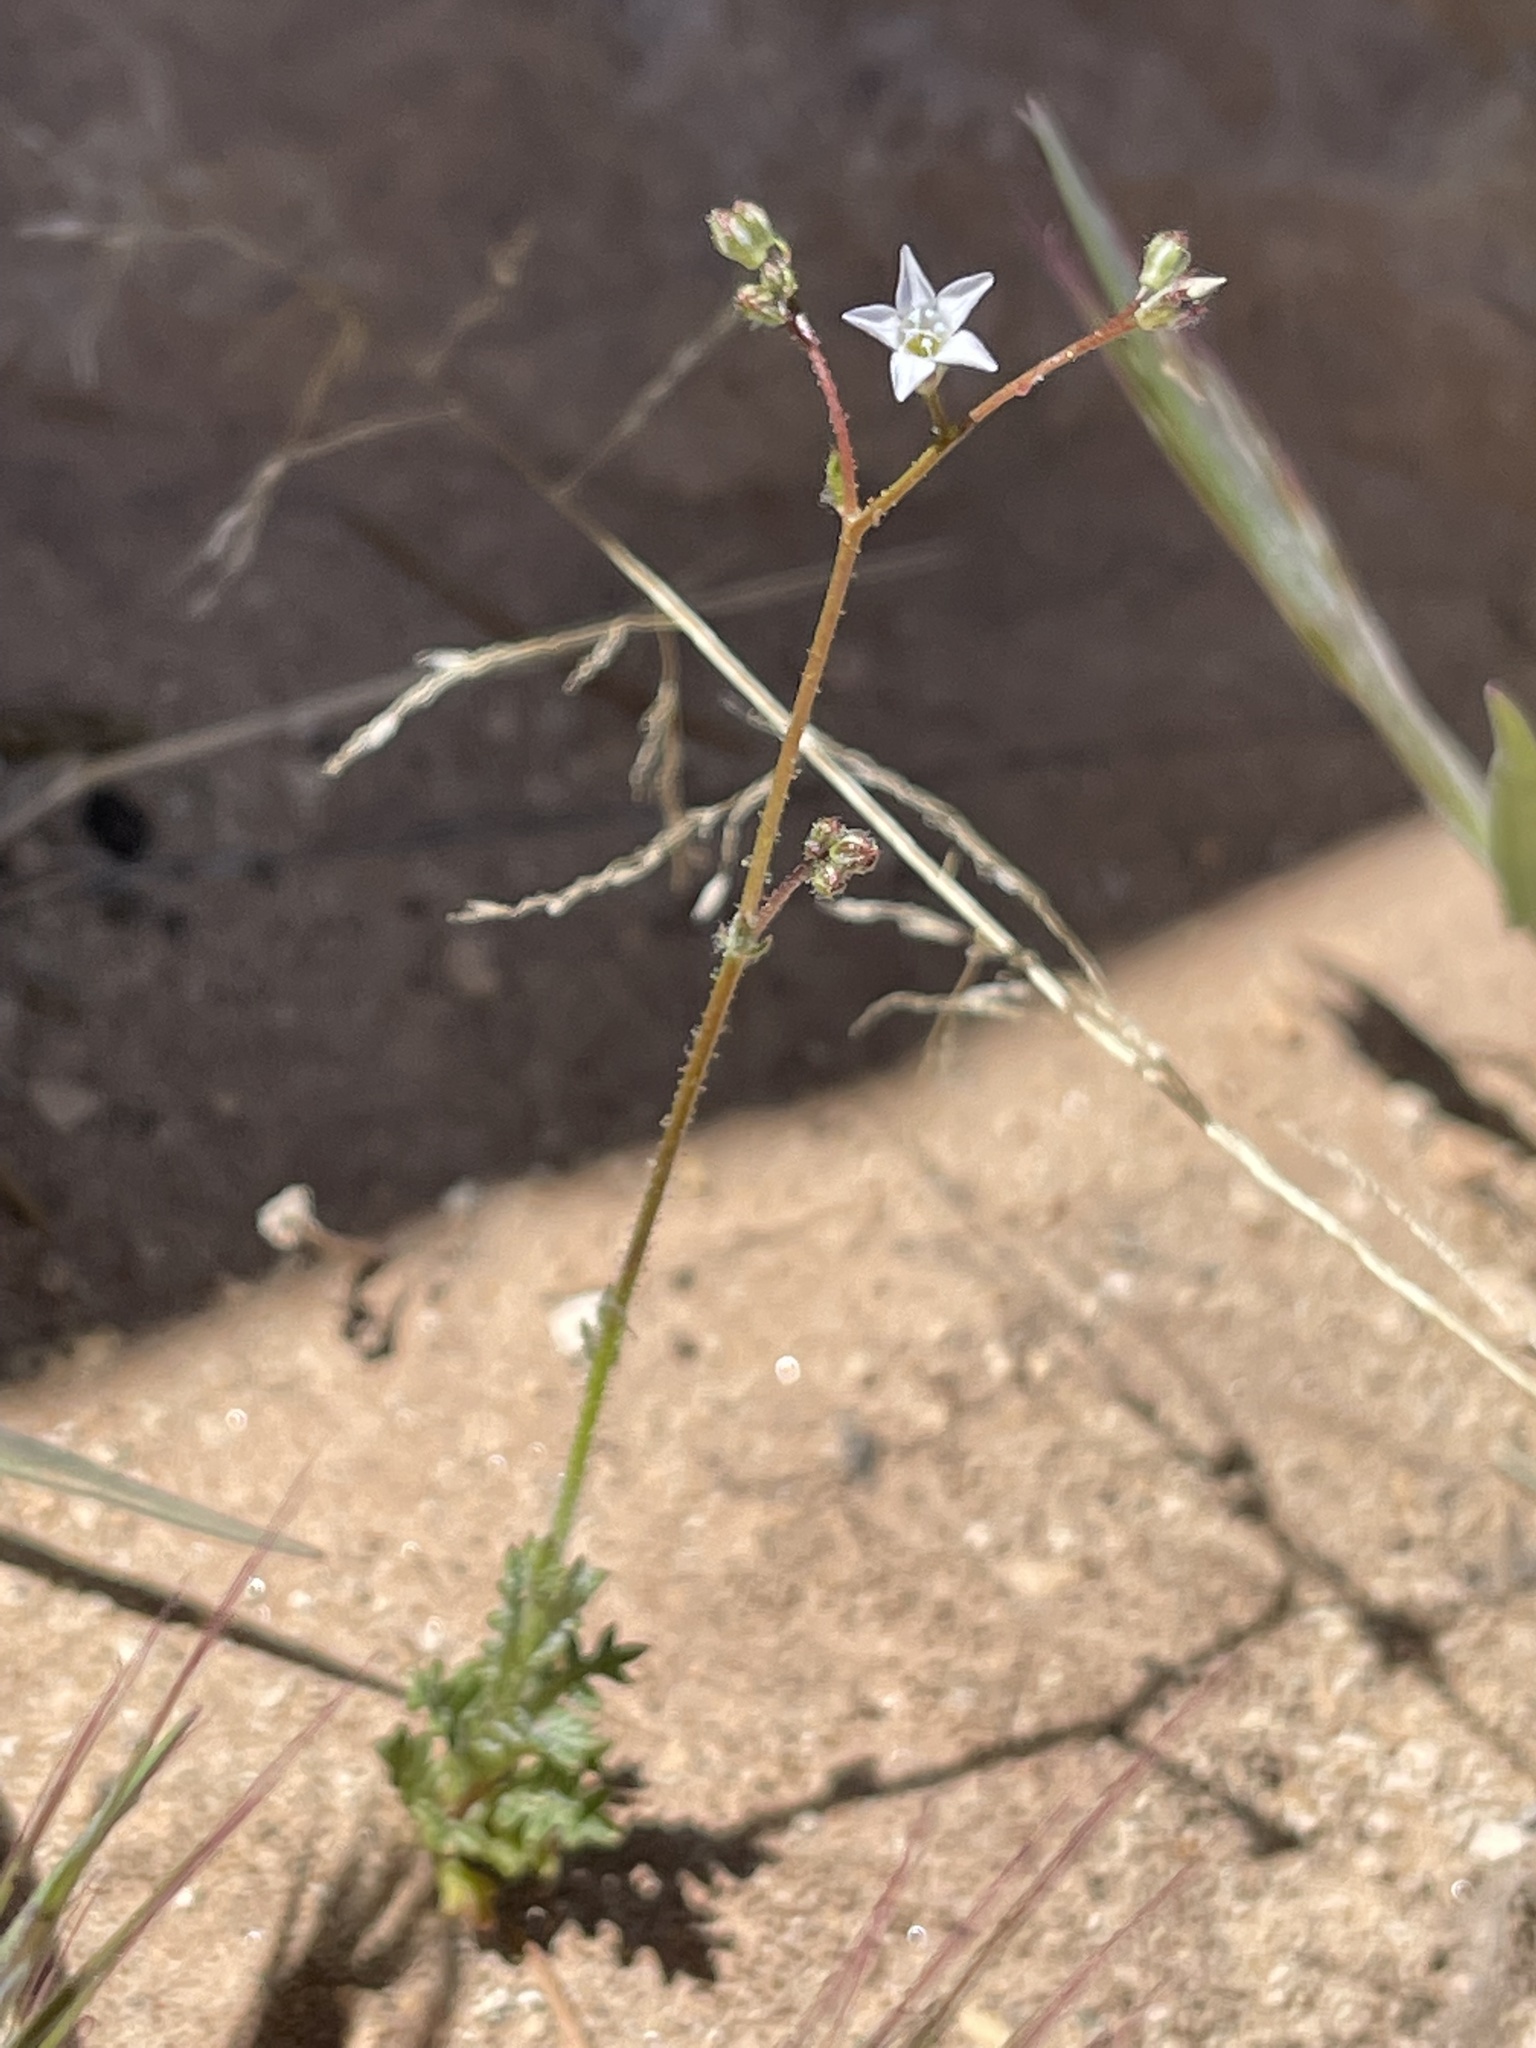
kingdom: Plantae
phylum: Tracheophyta
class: Magnoliopsida
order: Ericales
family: Polemoniaceae
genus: Gilia
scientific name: Gilia clokeyi
